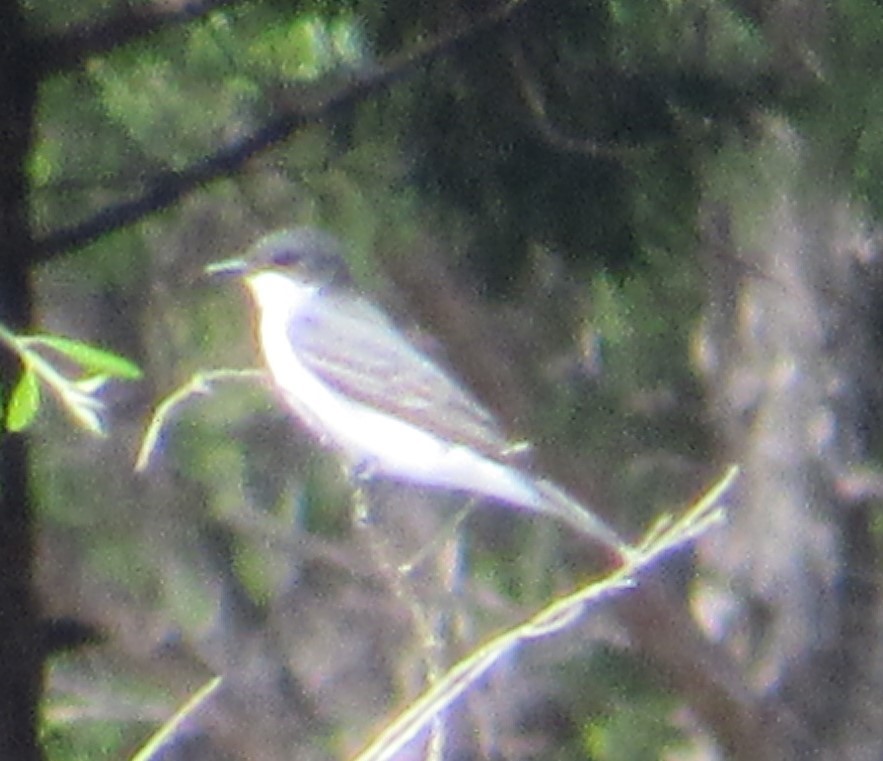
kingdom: Animalia
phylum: Chordata
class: Aves
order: Passeriformes
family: Tyrannidae
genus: Tyrannus
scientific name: Tyrannus tyrannus
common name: Eastern kingbird
